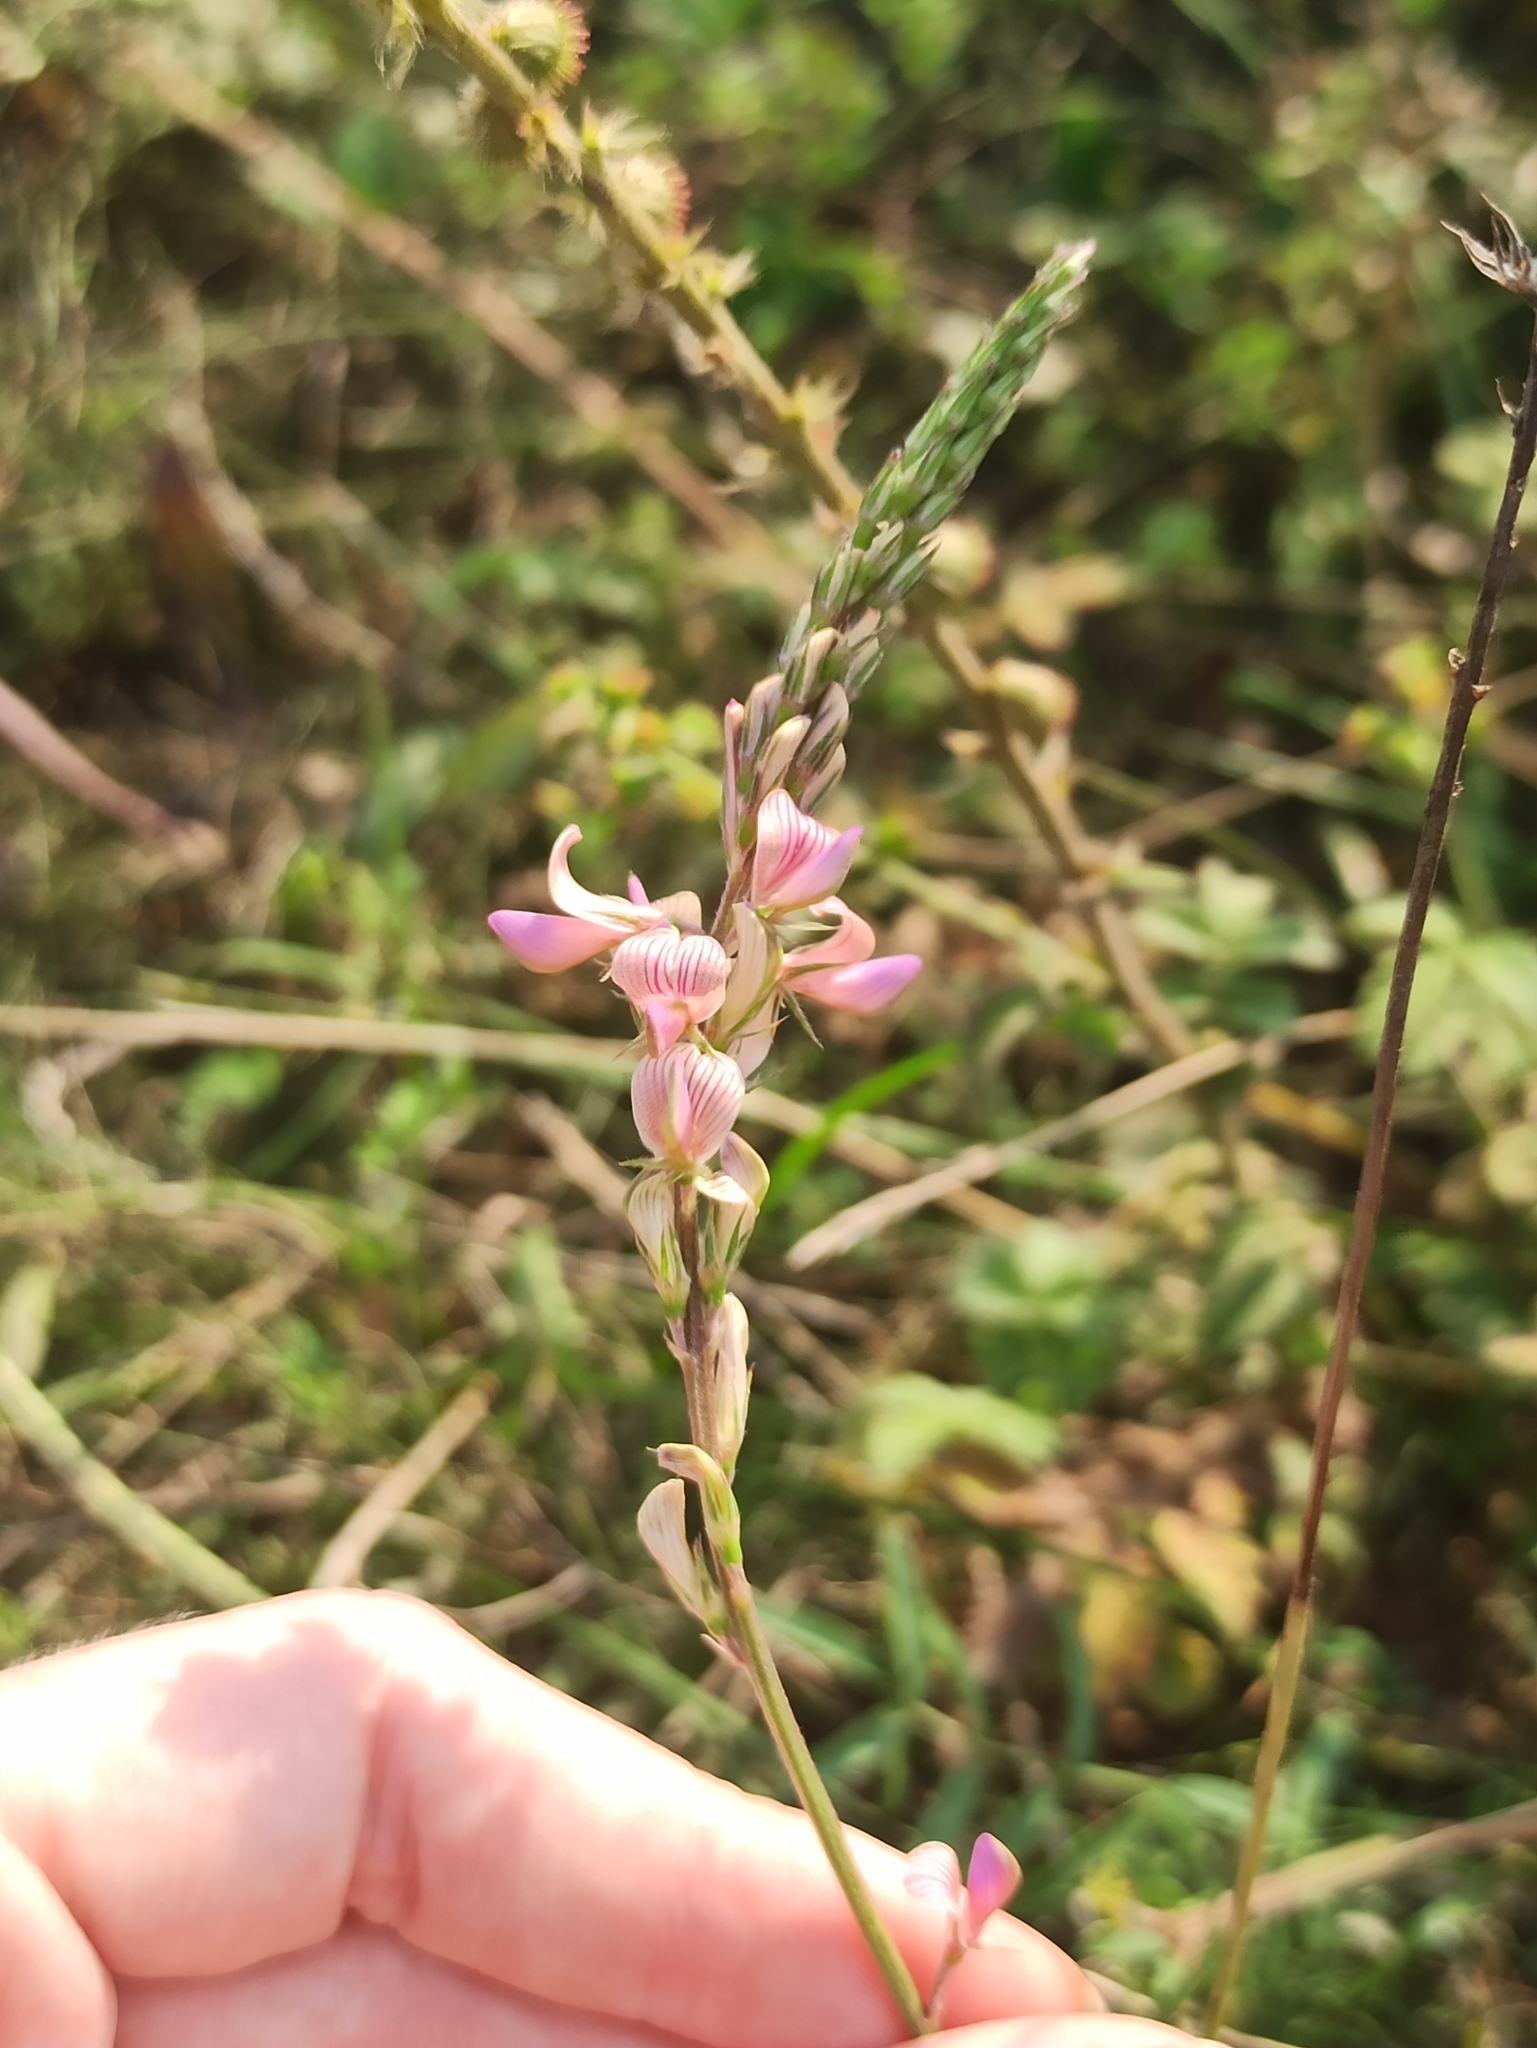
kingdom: Plantae
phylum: Tracheophyta
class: Magnoliopsida
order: Fabales
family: Fabaceae
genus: Onobrychis
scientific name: Onobrychis arenaria
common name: Sand esparcet
